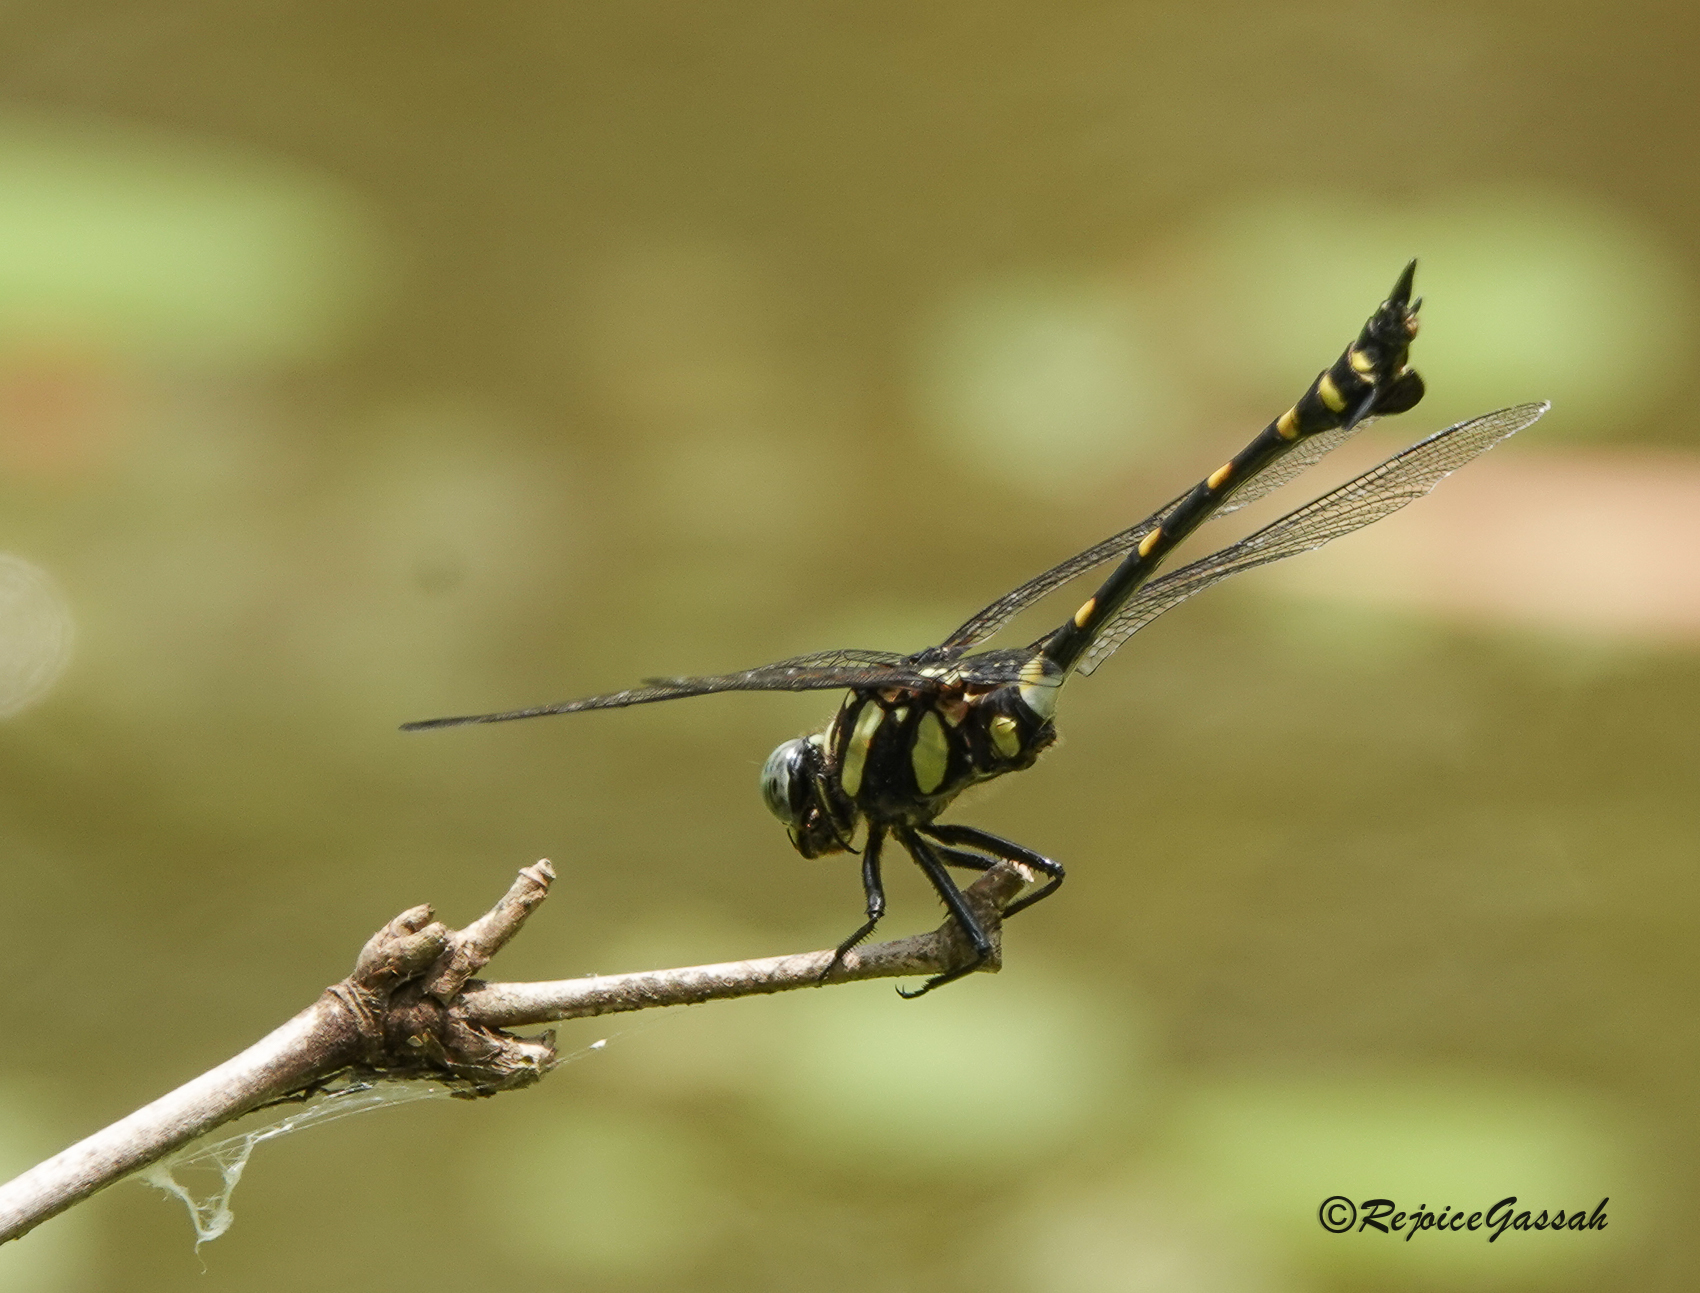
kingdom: Animalia
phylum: Arthropoda
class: Insecta
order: Odonata
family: Gomphidae
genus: Ictinogomphus
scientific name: Ictinogomphus rapax
